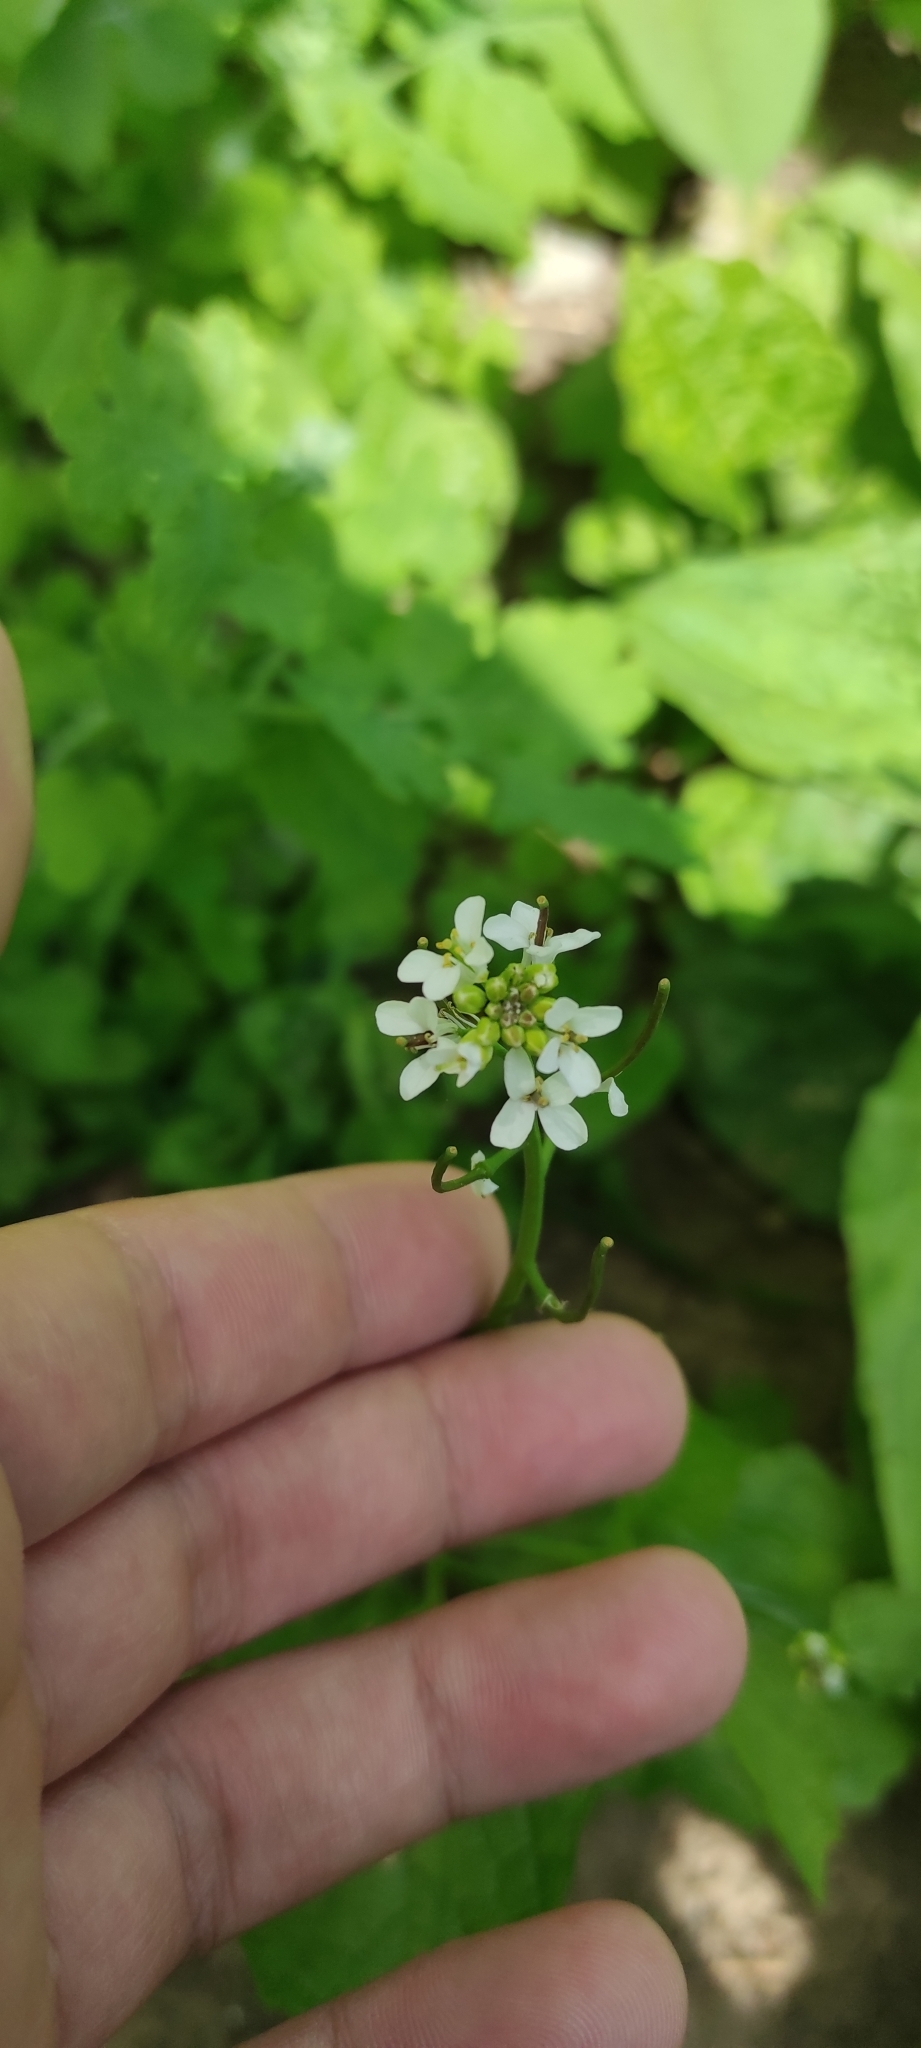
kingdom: Plantae
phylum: Tracheophyta
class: Magnoliopsida
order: Brassicales
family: Brassicaceae
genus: Alliaria
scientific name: Alliaria petiolata
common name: Garlic mustard
